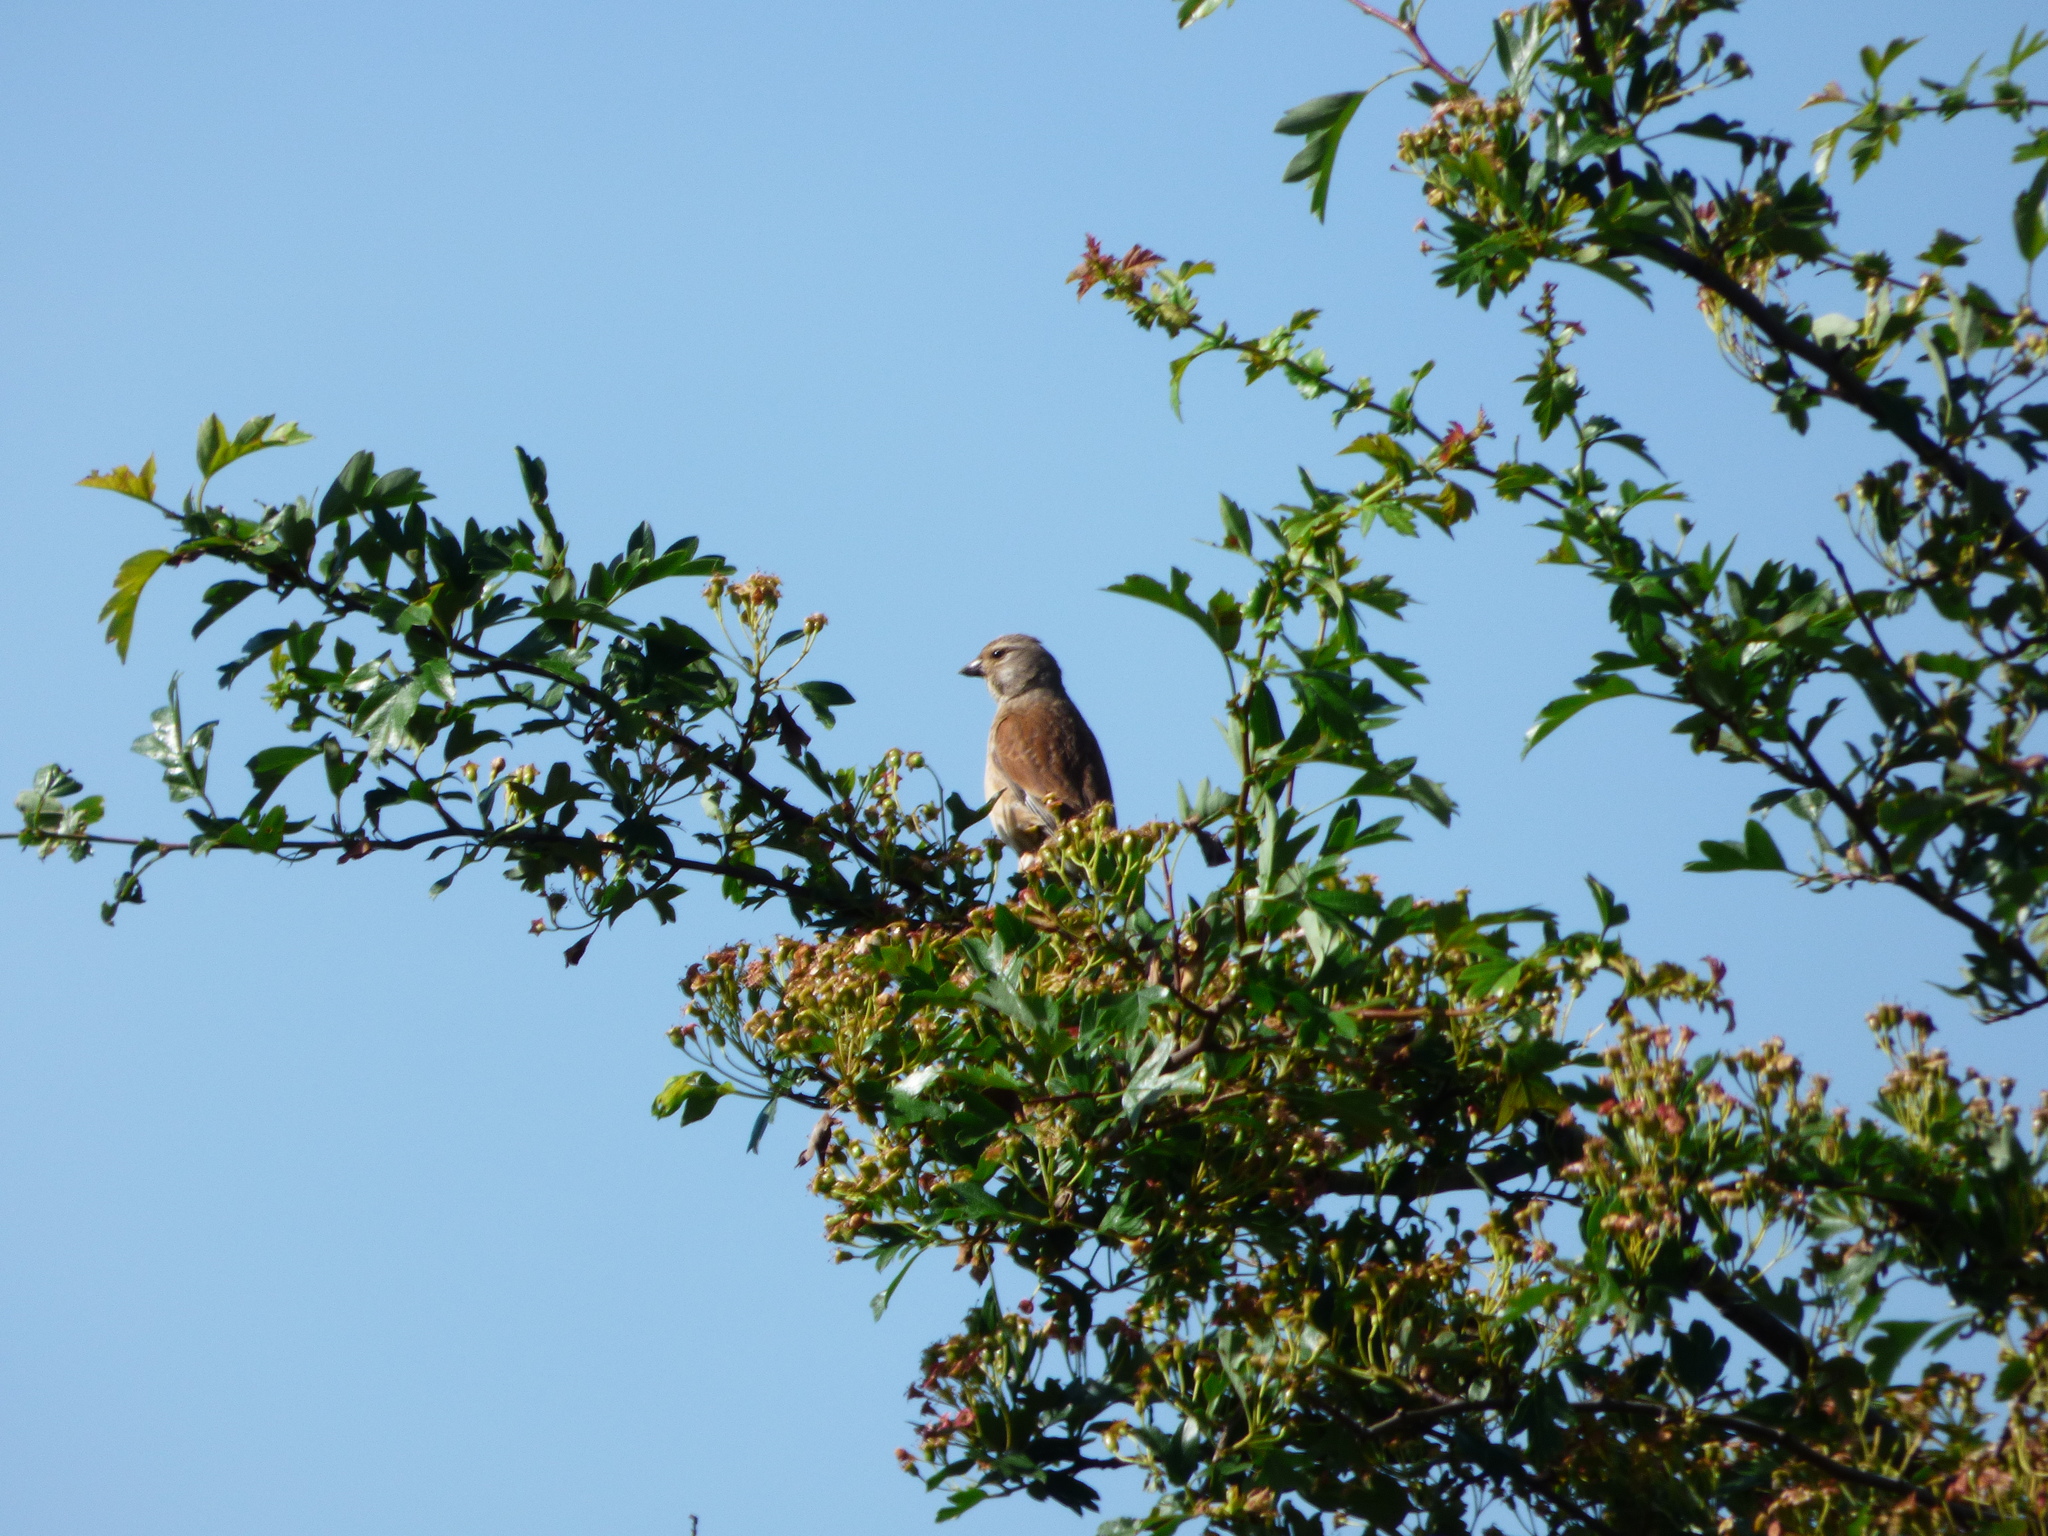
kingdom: Animalia
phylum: Chordata
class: Aves
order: Passeriformes
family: Fringillidae
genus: Linaria
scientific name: Linaria cannabina
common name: Common linnet
